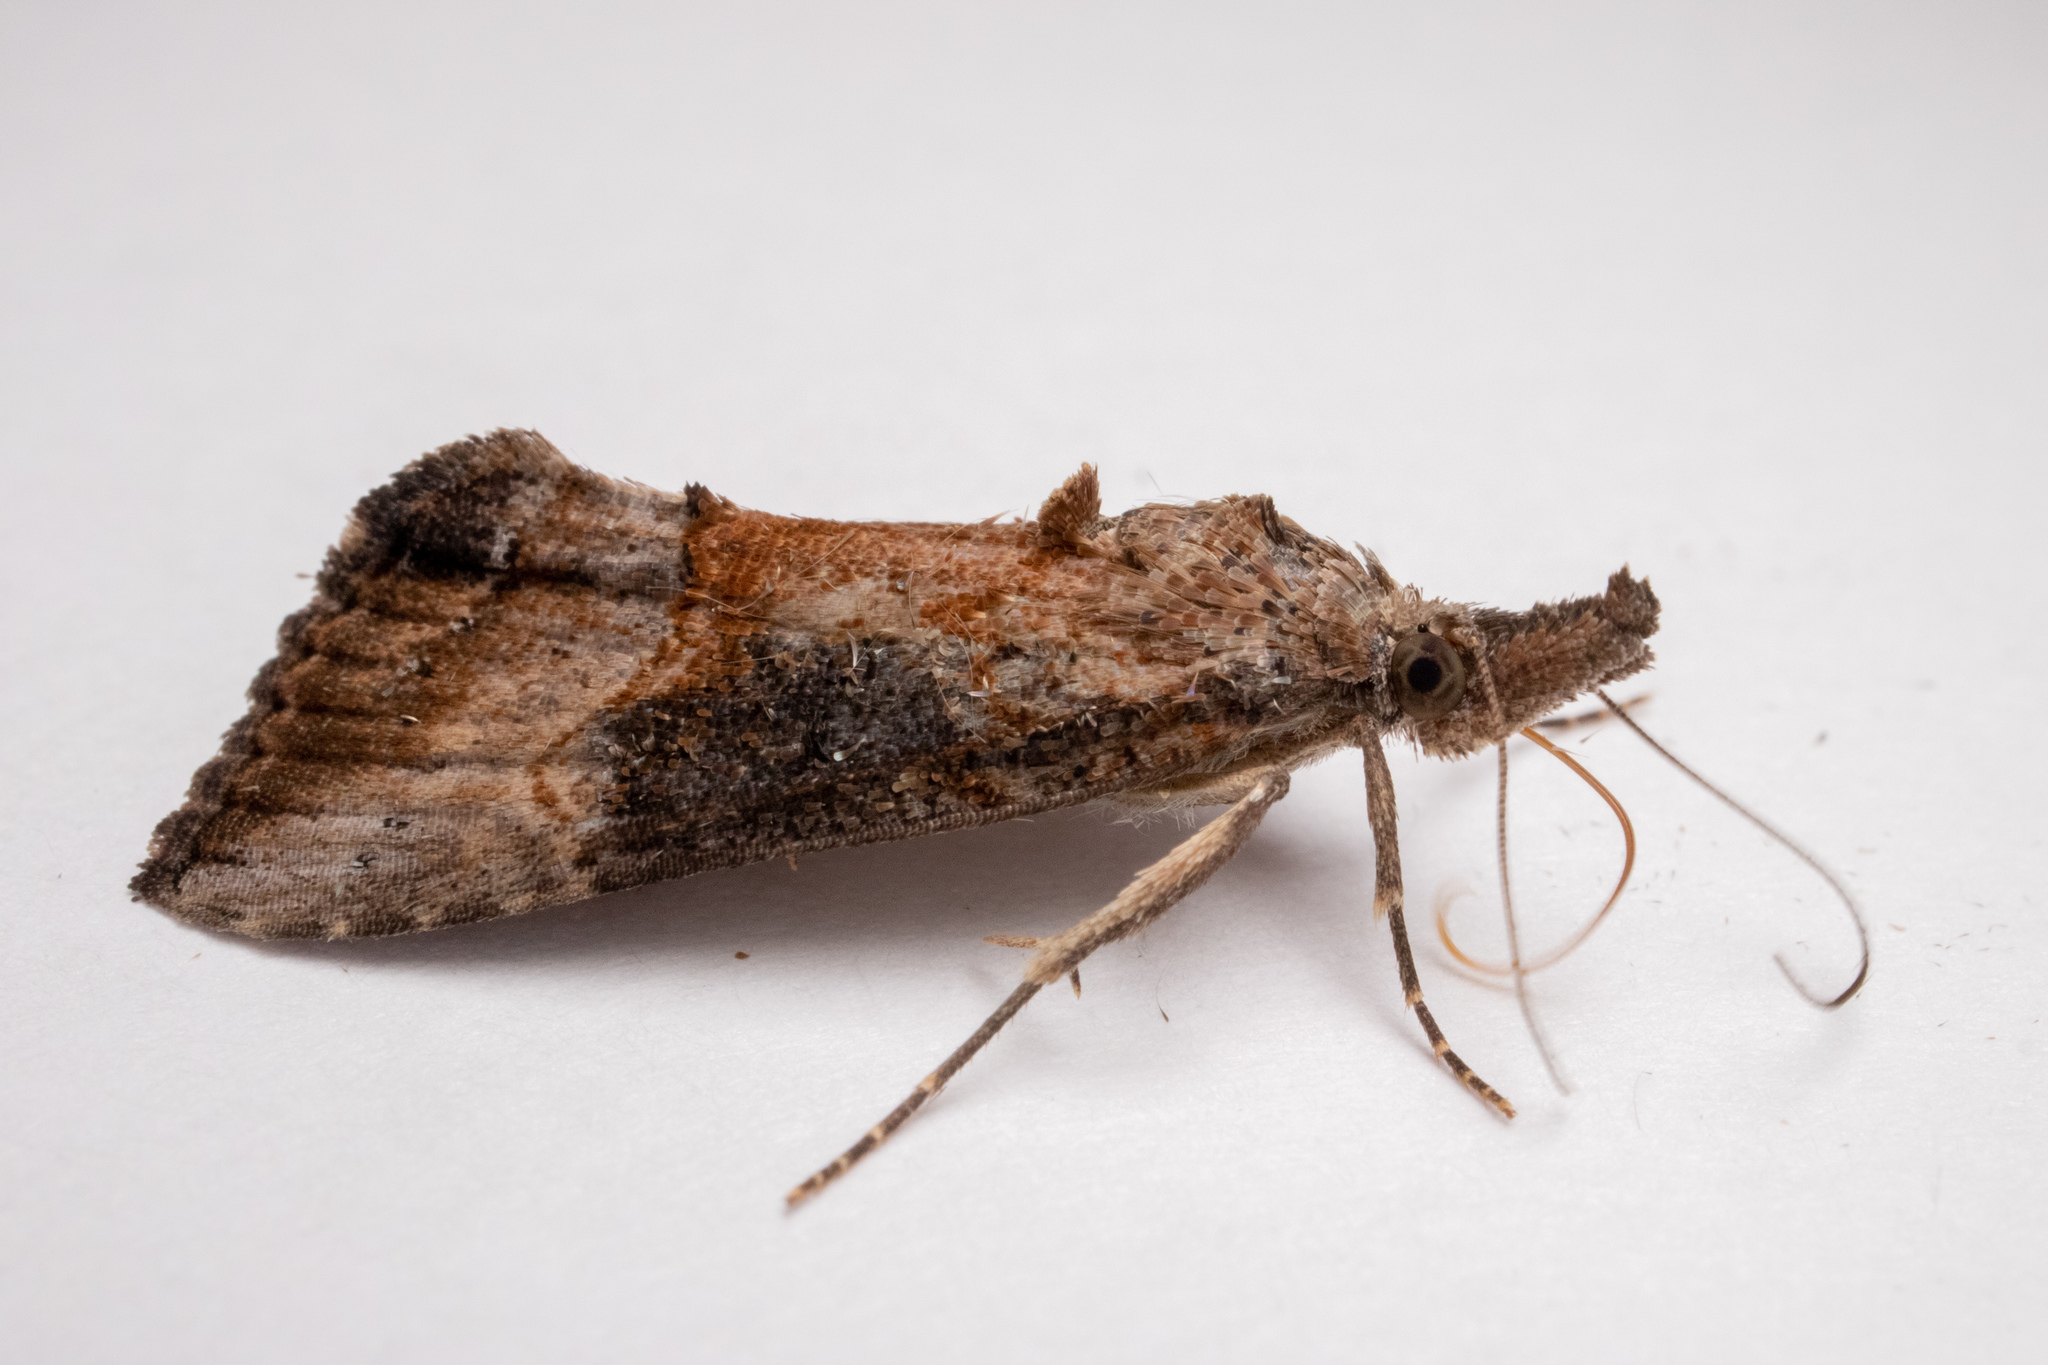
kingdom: Animalia
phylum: Arthropoda
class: Insecta
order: Lepidoptera
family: Erebidae
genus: Hypena
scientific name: Hypena scabra
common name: Green cloverworm
